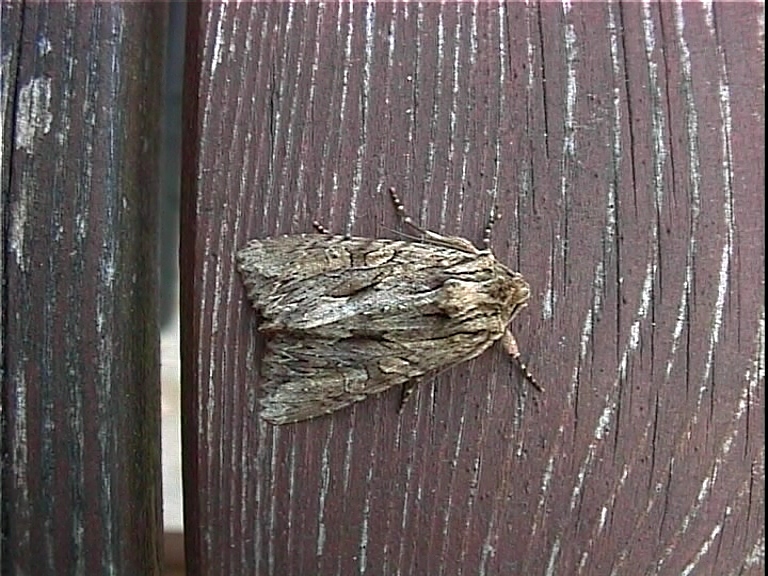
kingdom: Animalia
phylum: Arthropoda
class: Insecta
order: Lepidoptera
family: Noctuidae
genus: Apamea
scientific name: Apamea monoglypha
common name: Dark arches
